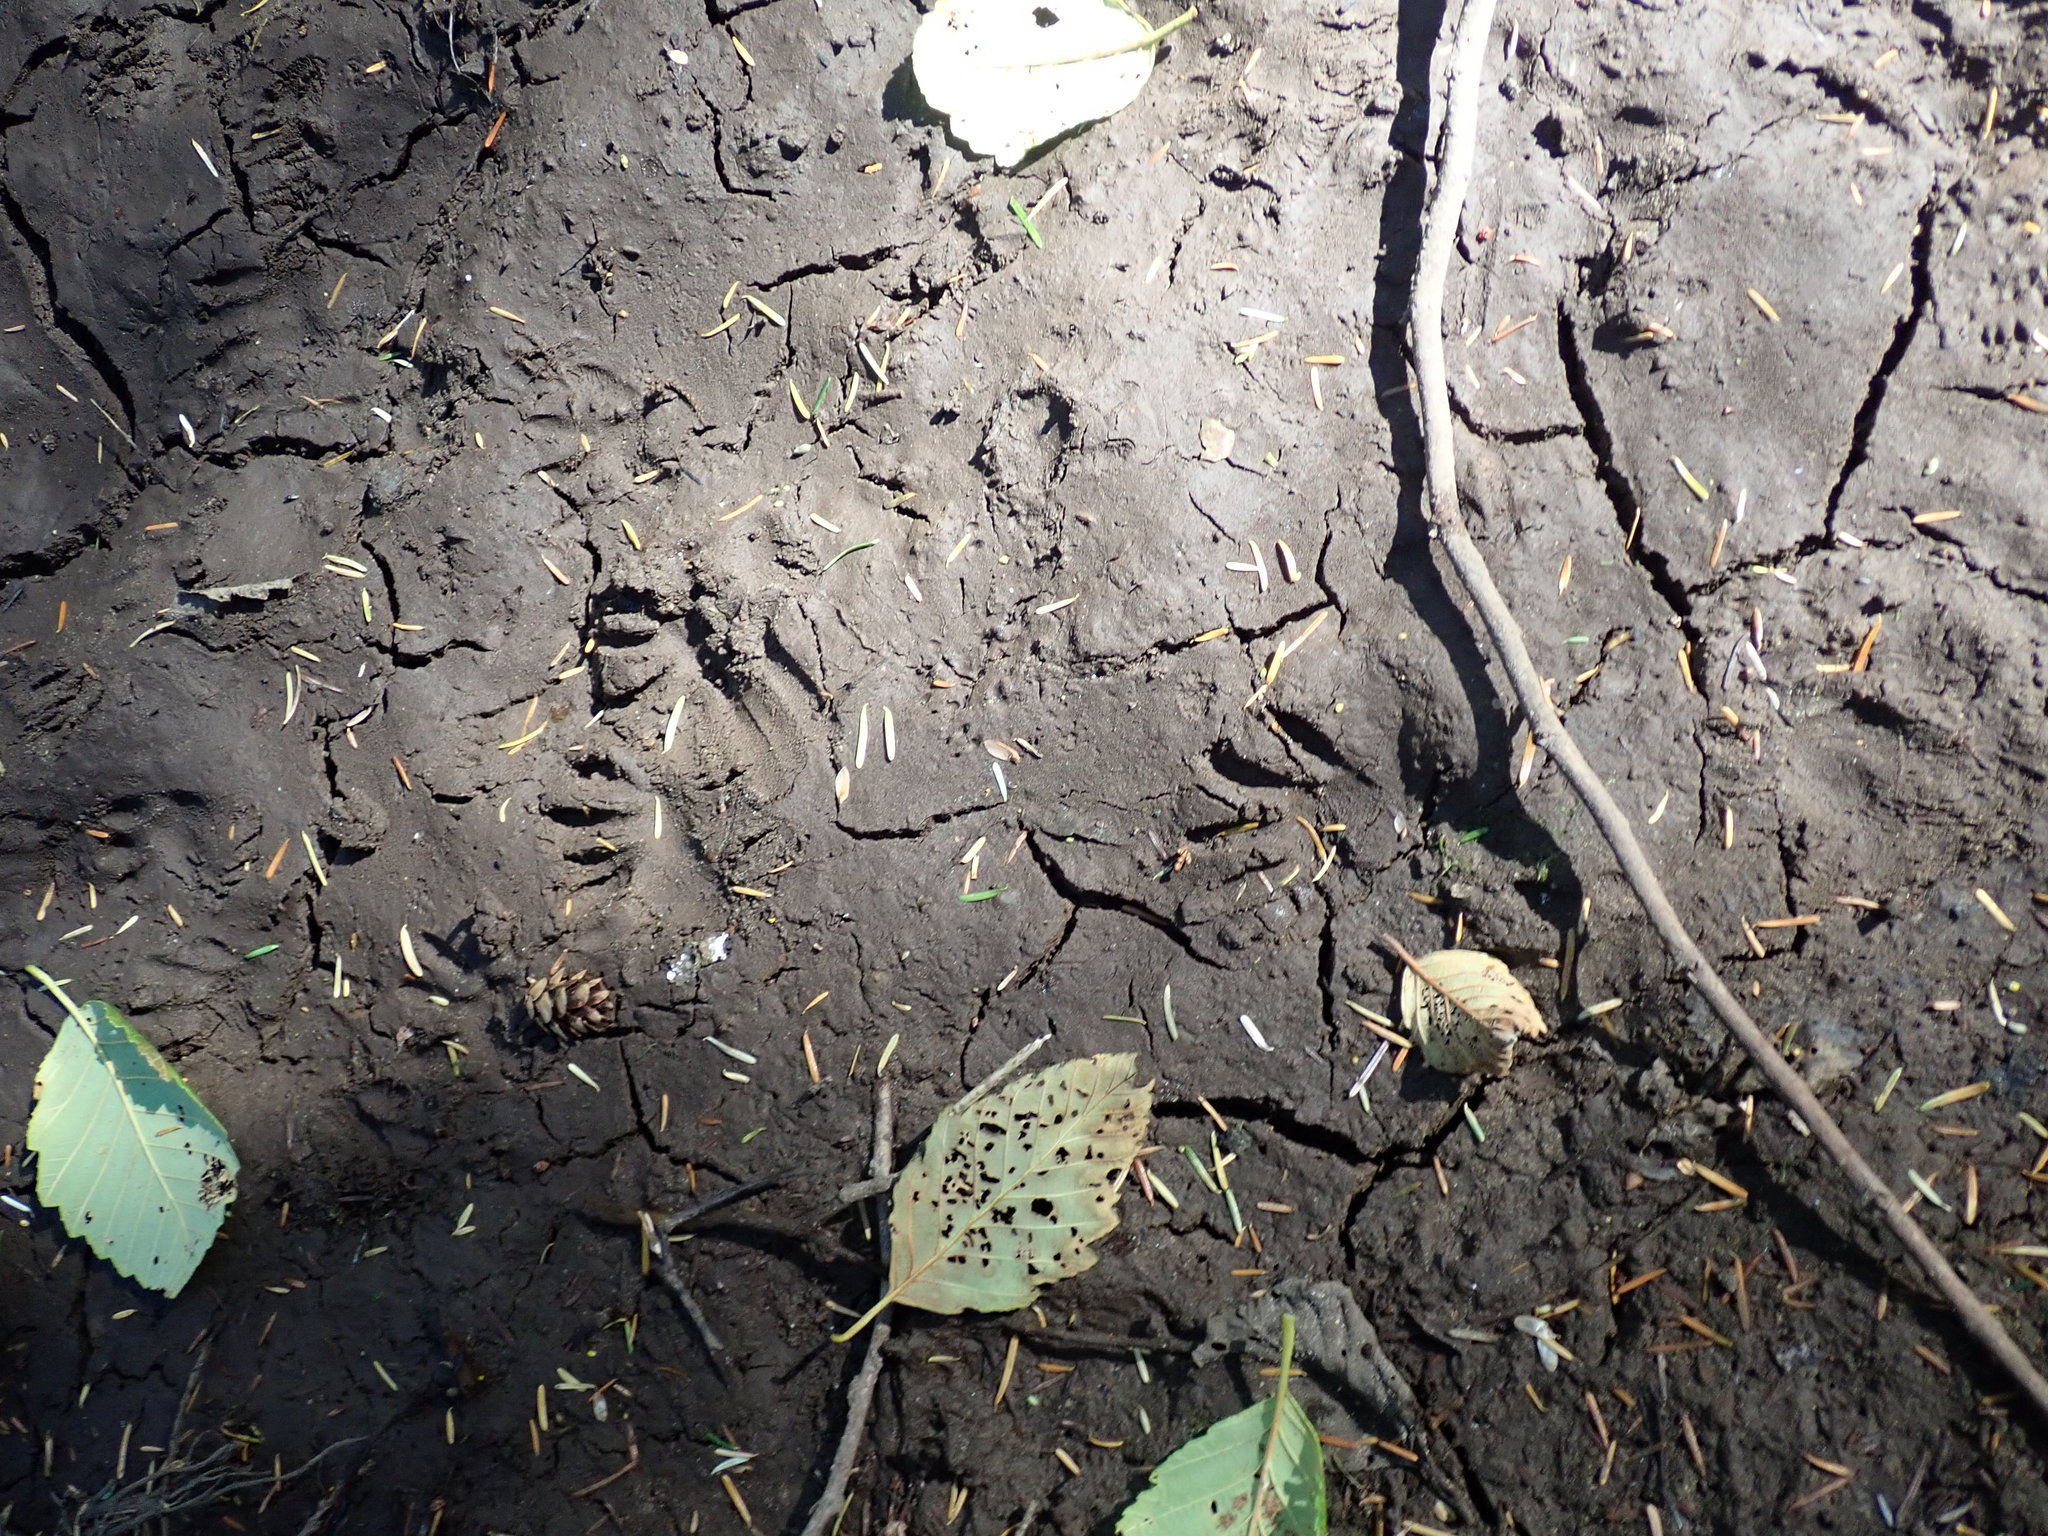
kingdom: Animalia
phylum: Chordata
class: Mammalia
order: Carnivora
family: Procyonidae
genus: Procyon
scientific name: Procyon lotor
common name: Raccoon
